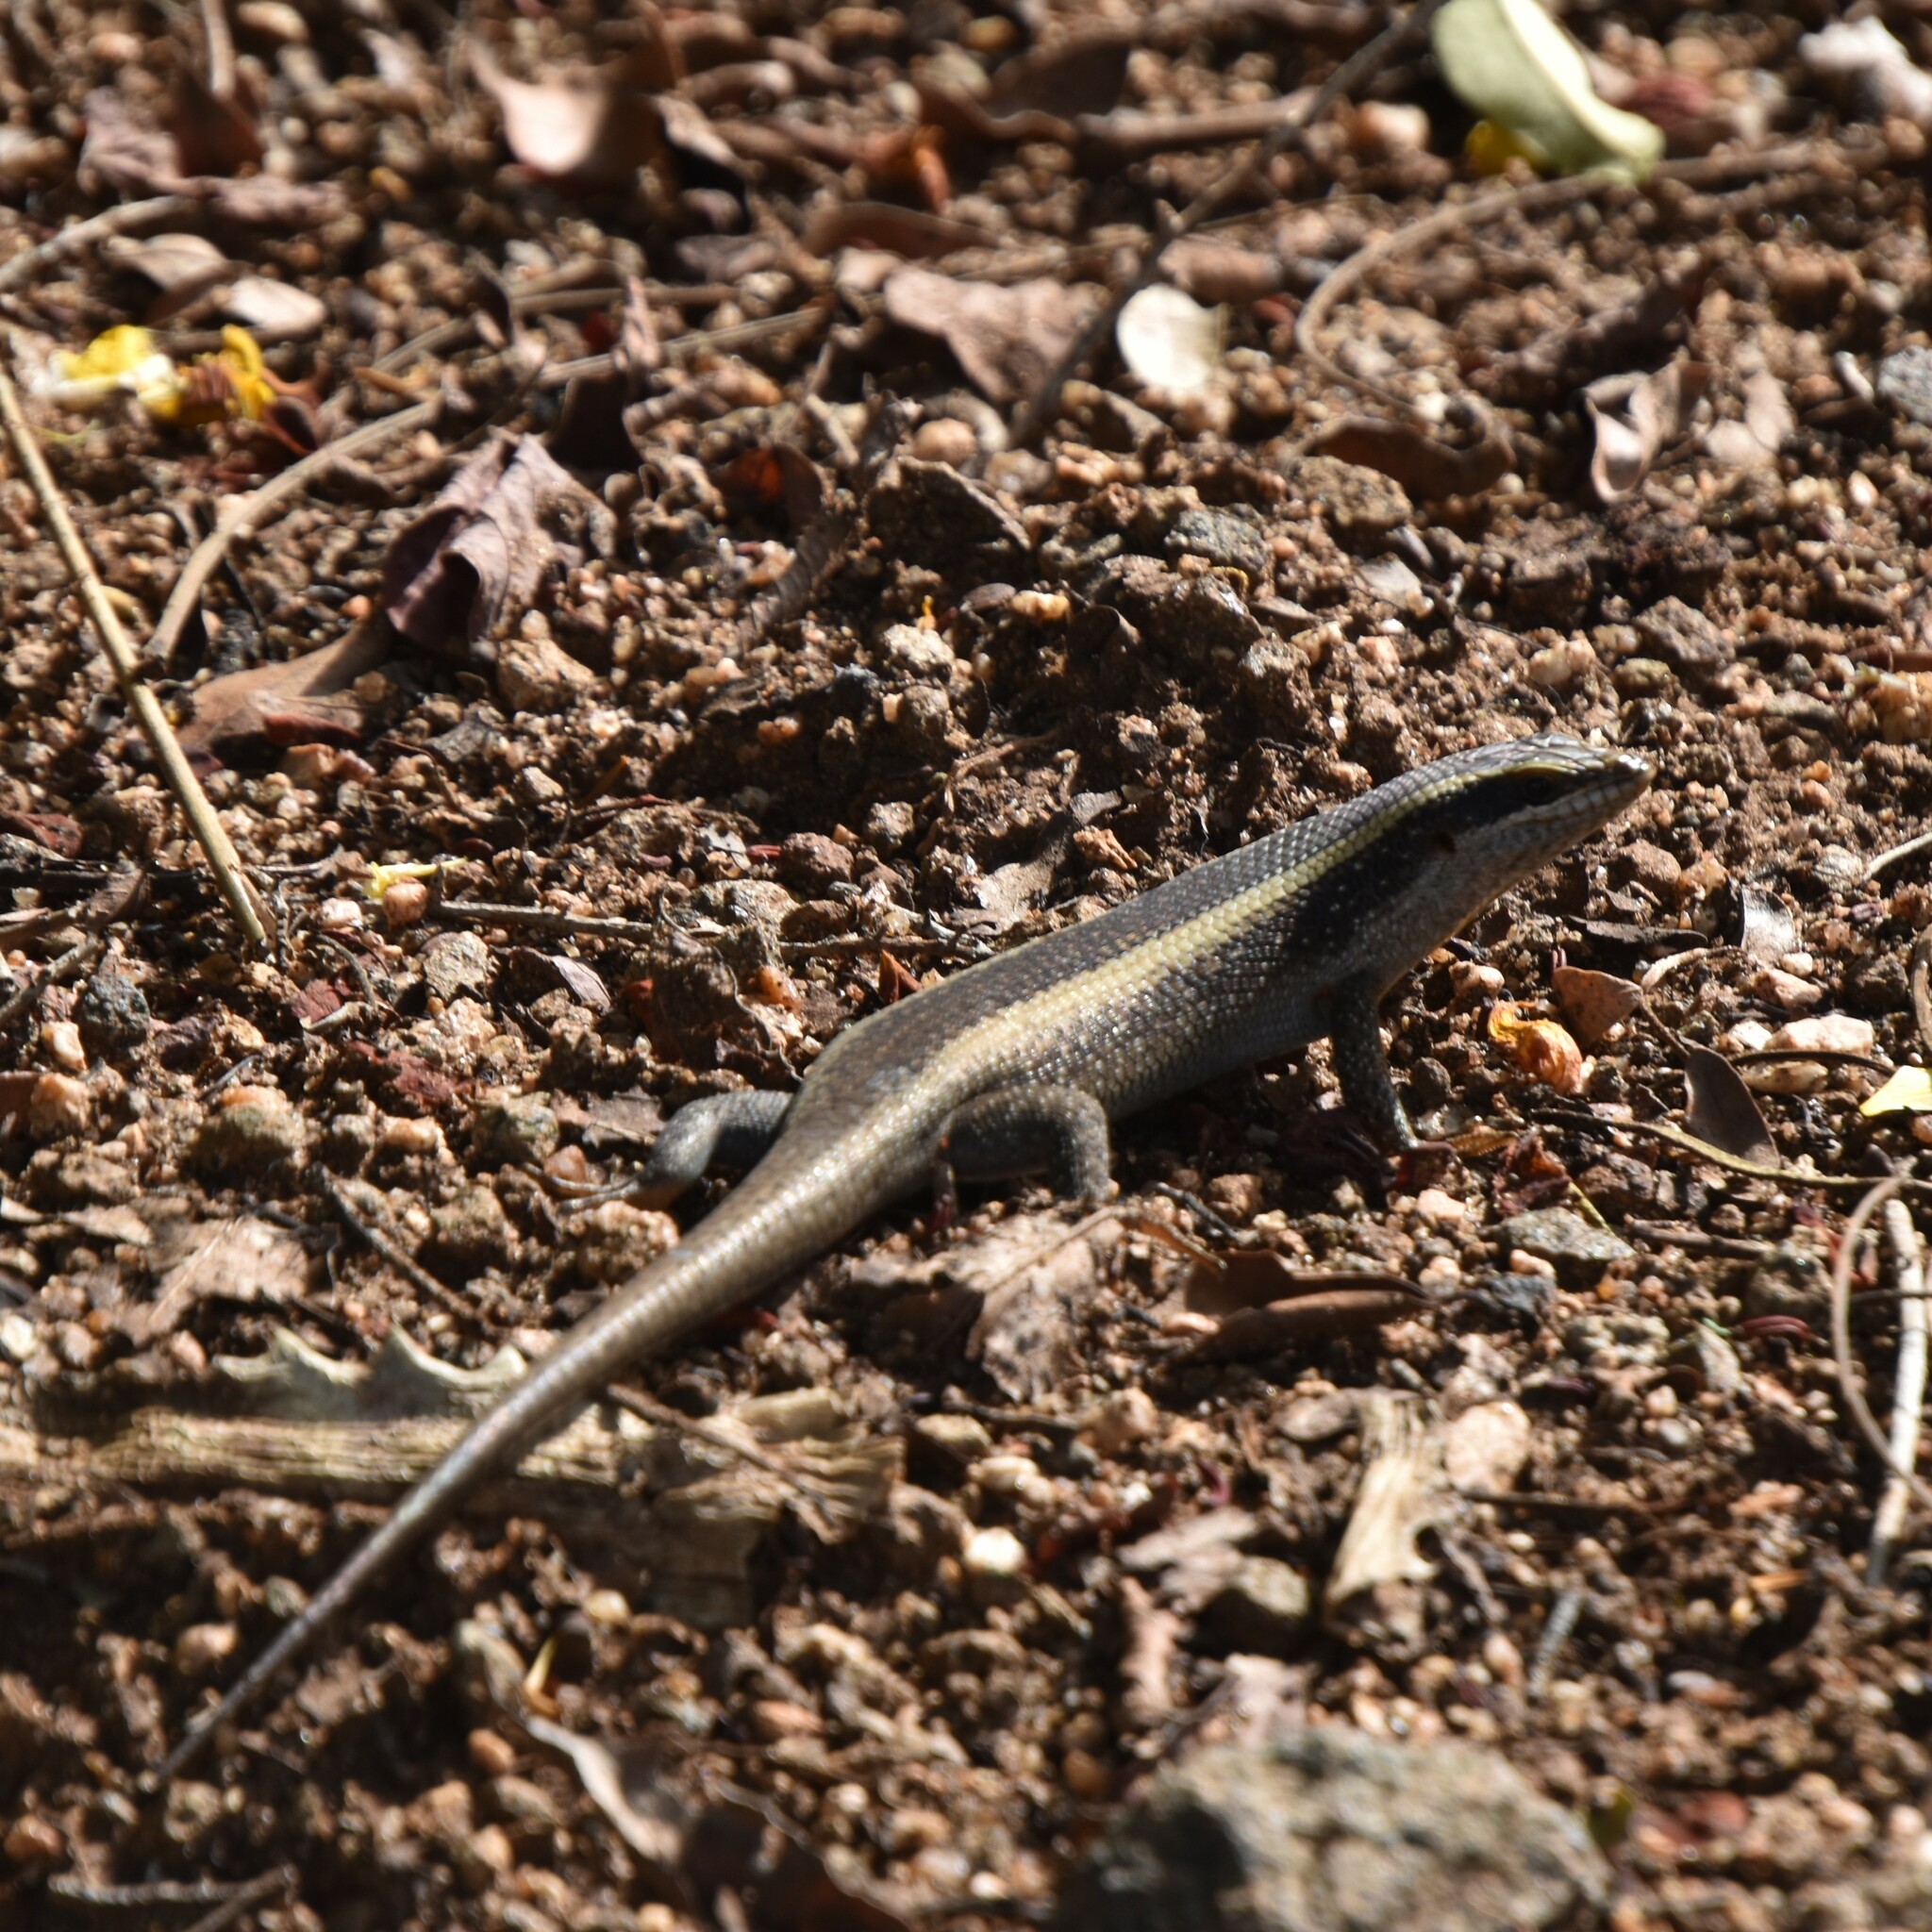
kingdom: Animalia
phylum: Chordata
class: Squamata
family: Scincidae
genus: Trachylepis
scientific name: Trachylepis striata
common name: African striped mabuya
